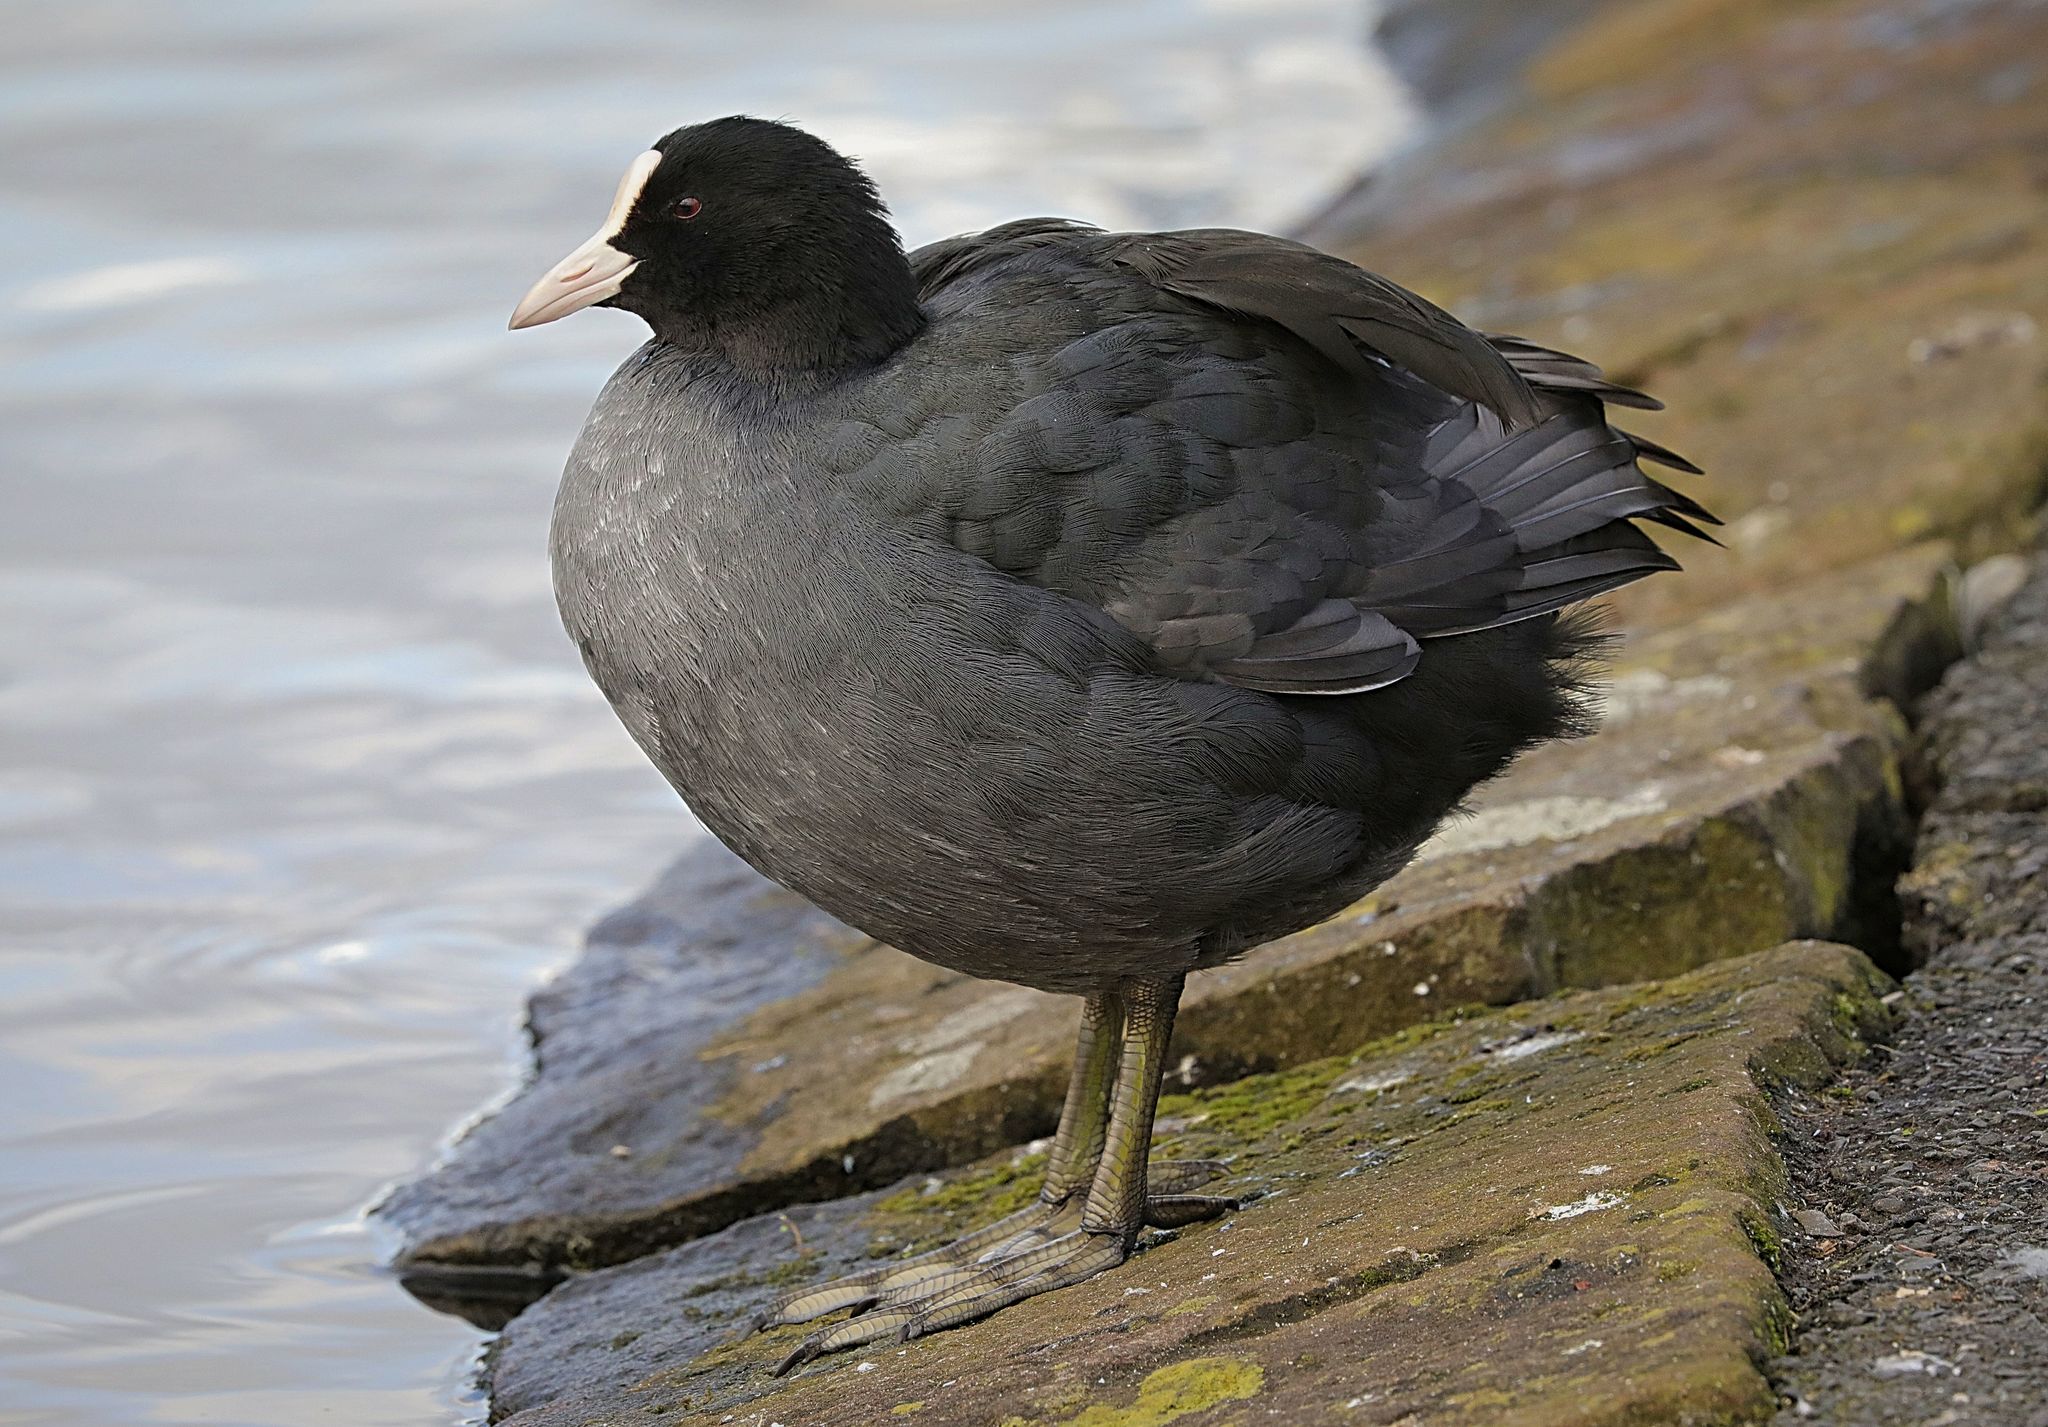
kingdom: Animalia
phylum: Chordata
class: Aves
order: Gruiformes
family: Rallidae
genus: Fulica
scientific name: Fulica atra
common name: Eurasian coot
